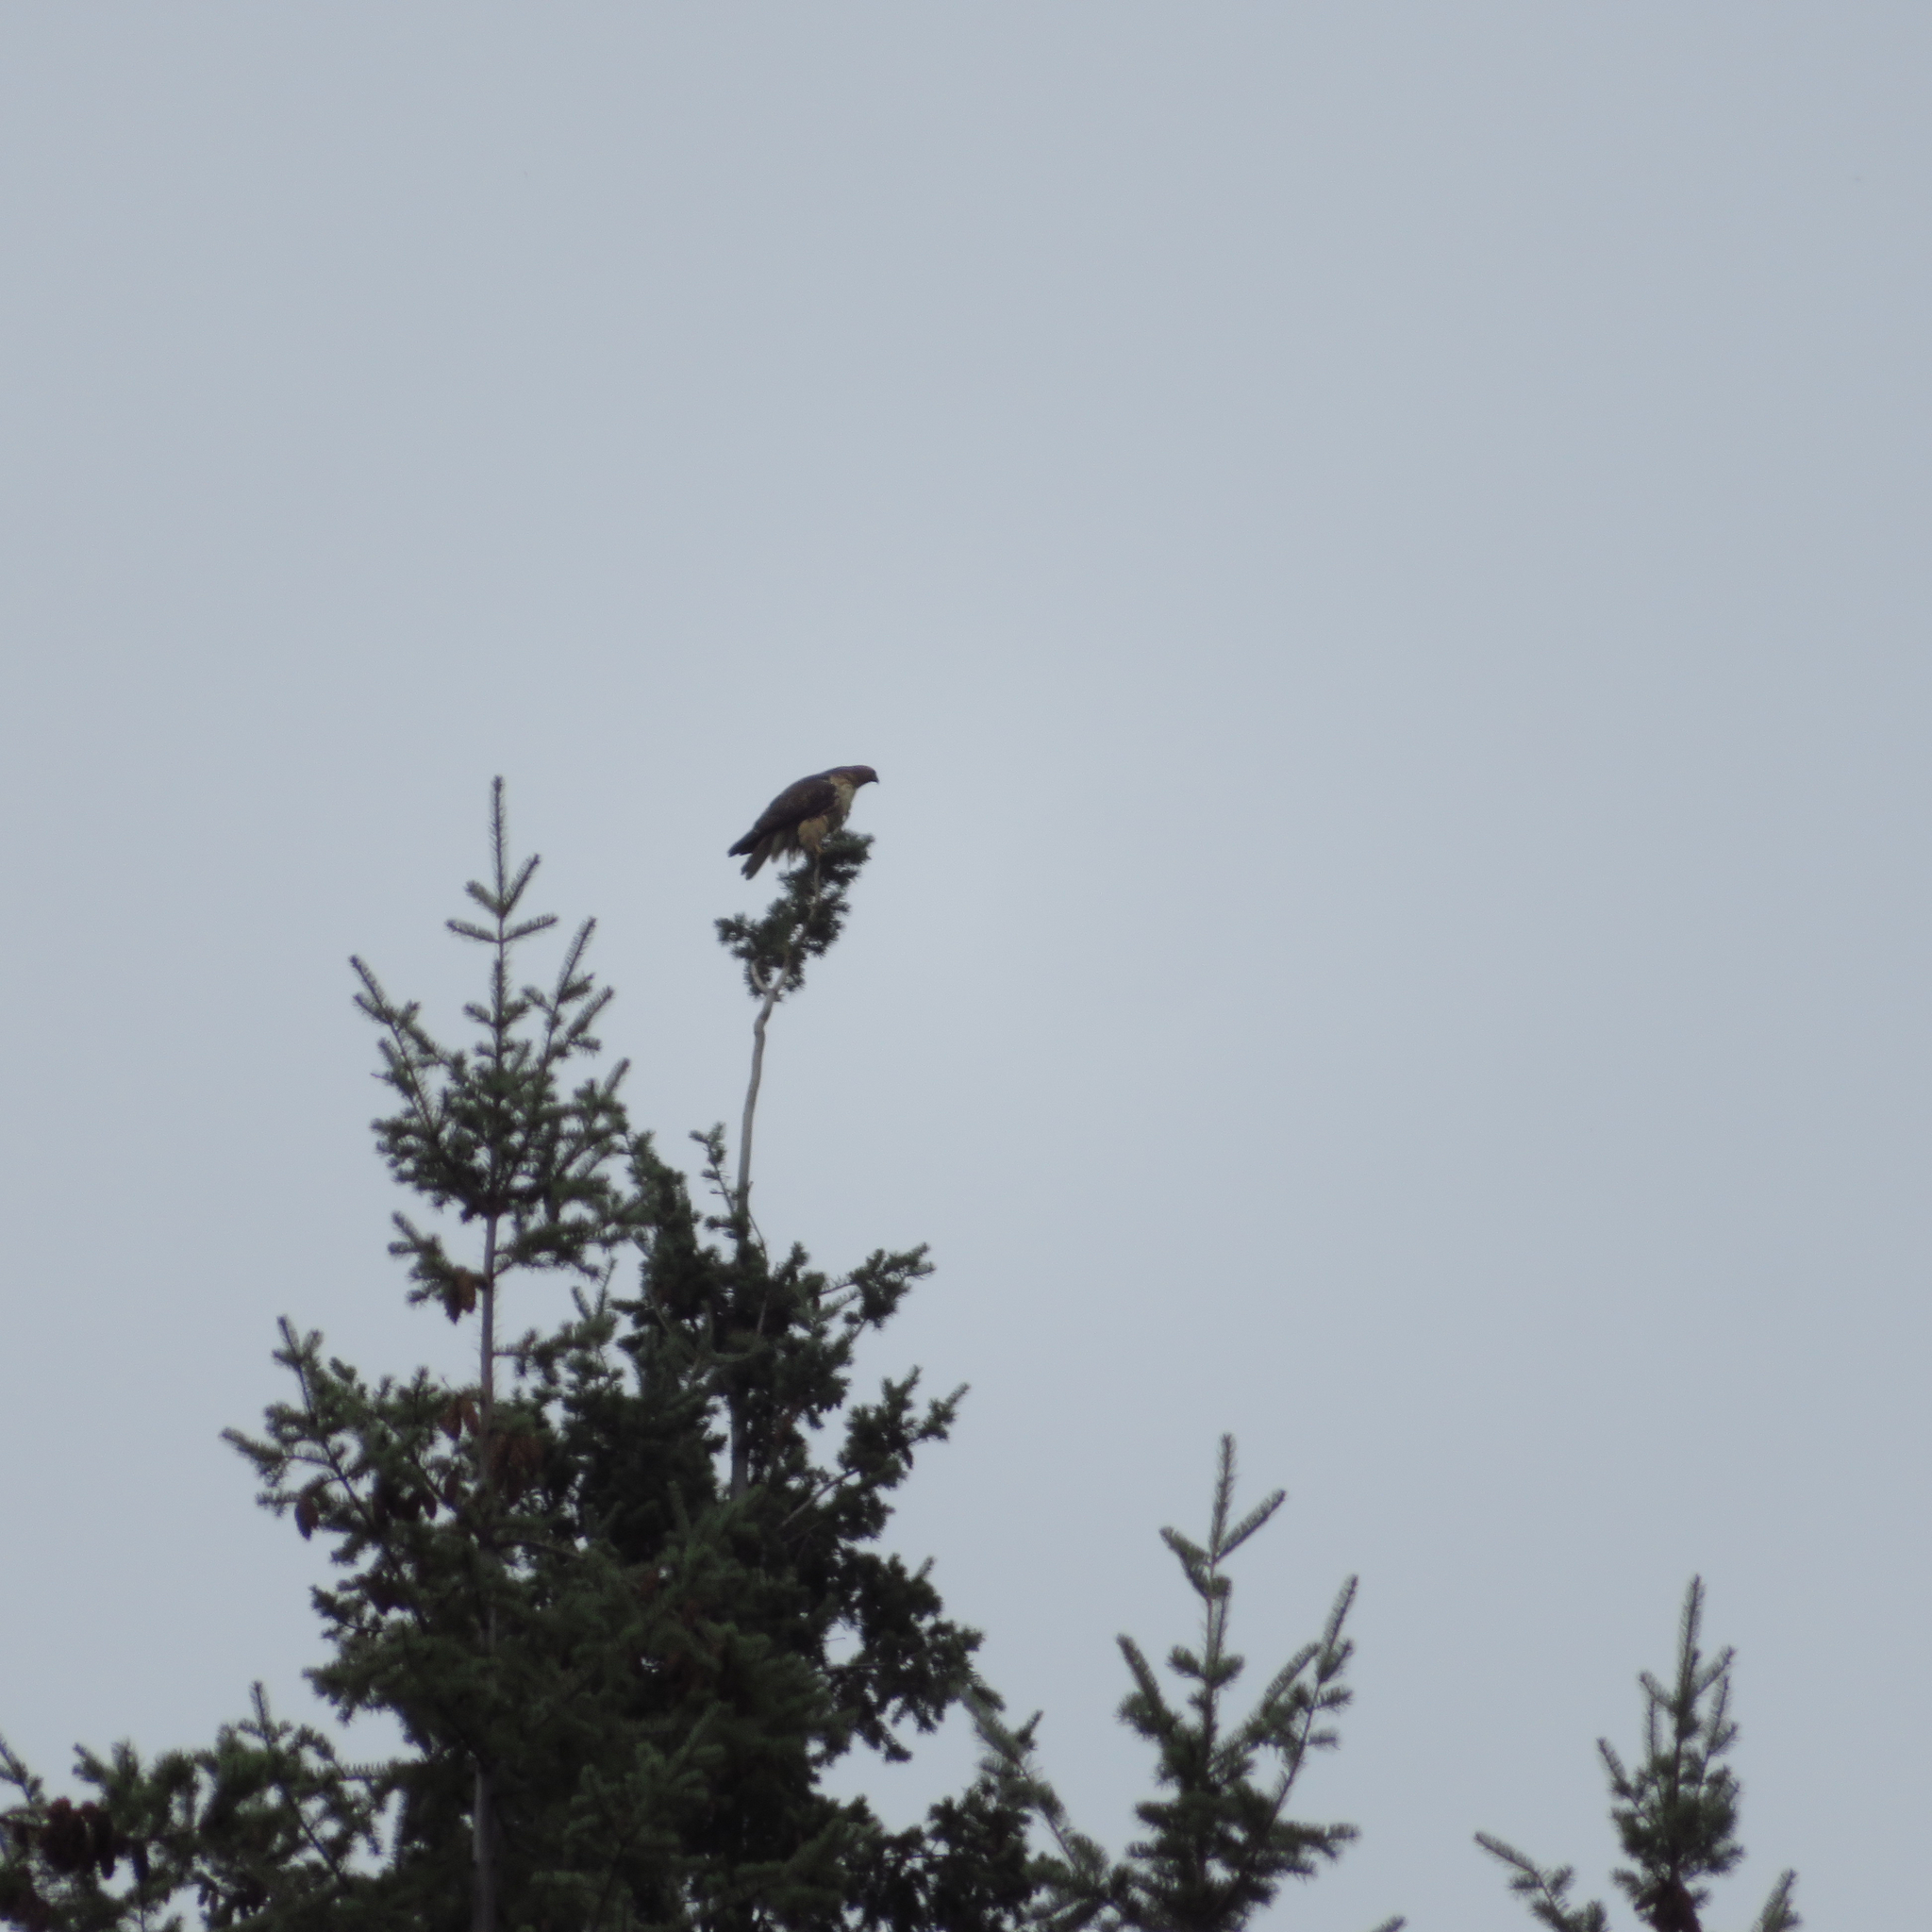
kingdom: Animalia
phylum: Chordata
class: Aves
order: Accipitriformes
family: Accipitridae
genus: Buteo
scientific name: Buteo jamaicensis
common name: Red-tailed hawk
